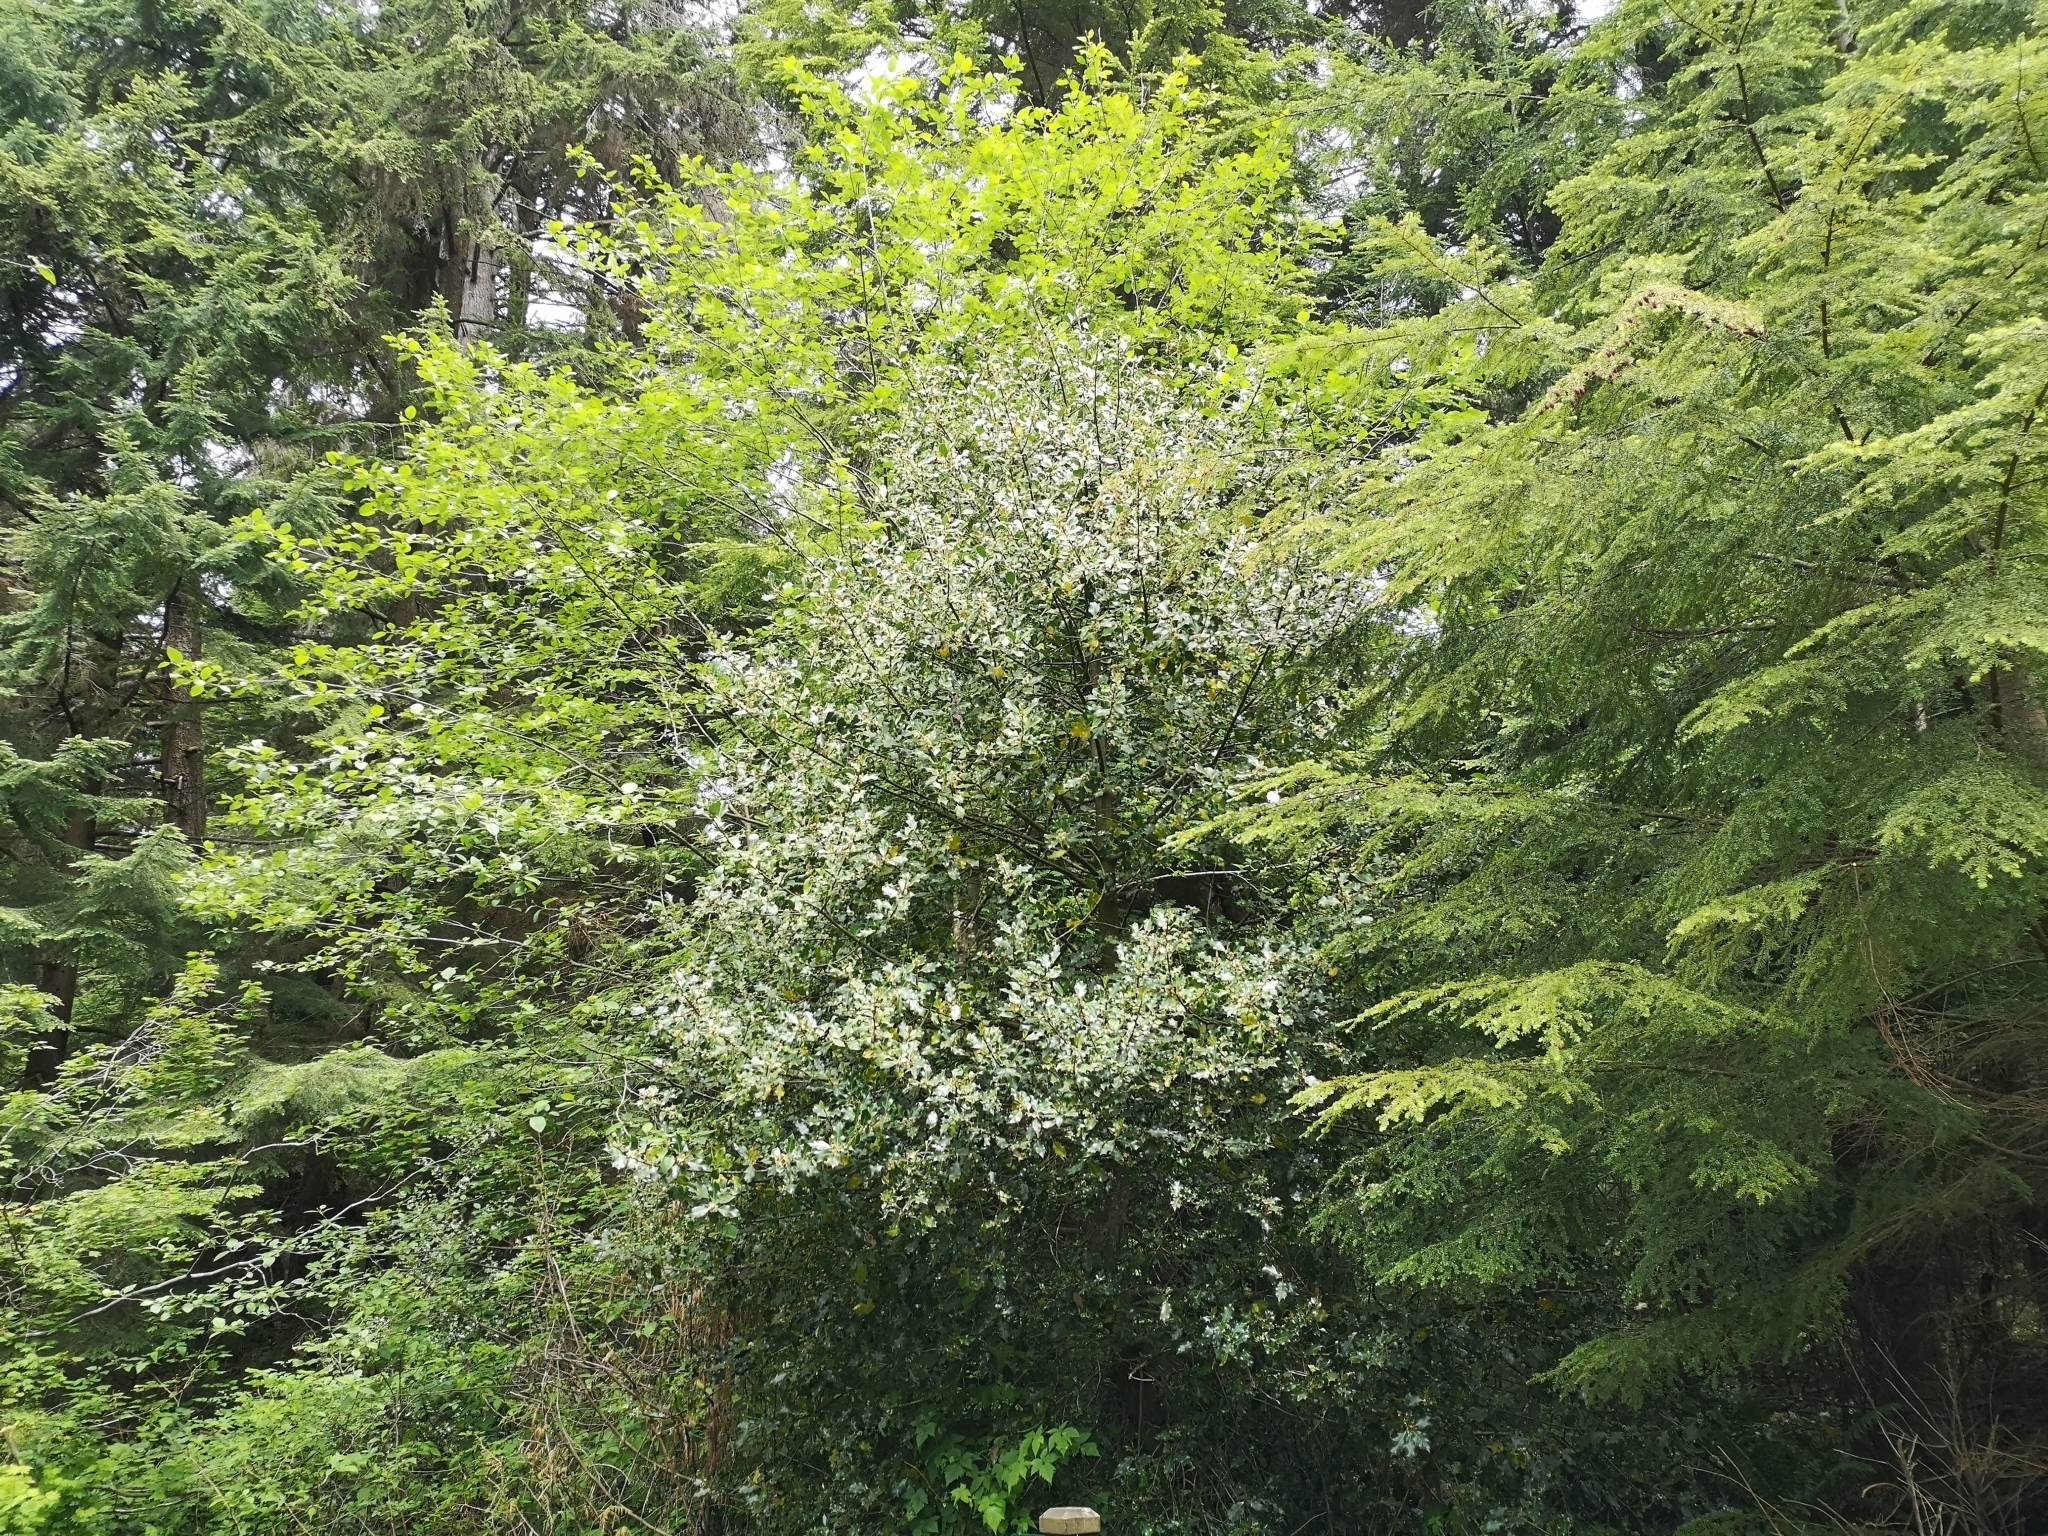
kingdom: Plantae
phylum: Tracheophyta
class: Magnoliopsida
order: Aquifoliales
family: Aquifoliaceae
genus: Ilex
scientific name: Ilex aquifolium
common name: English holly
